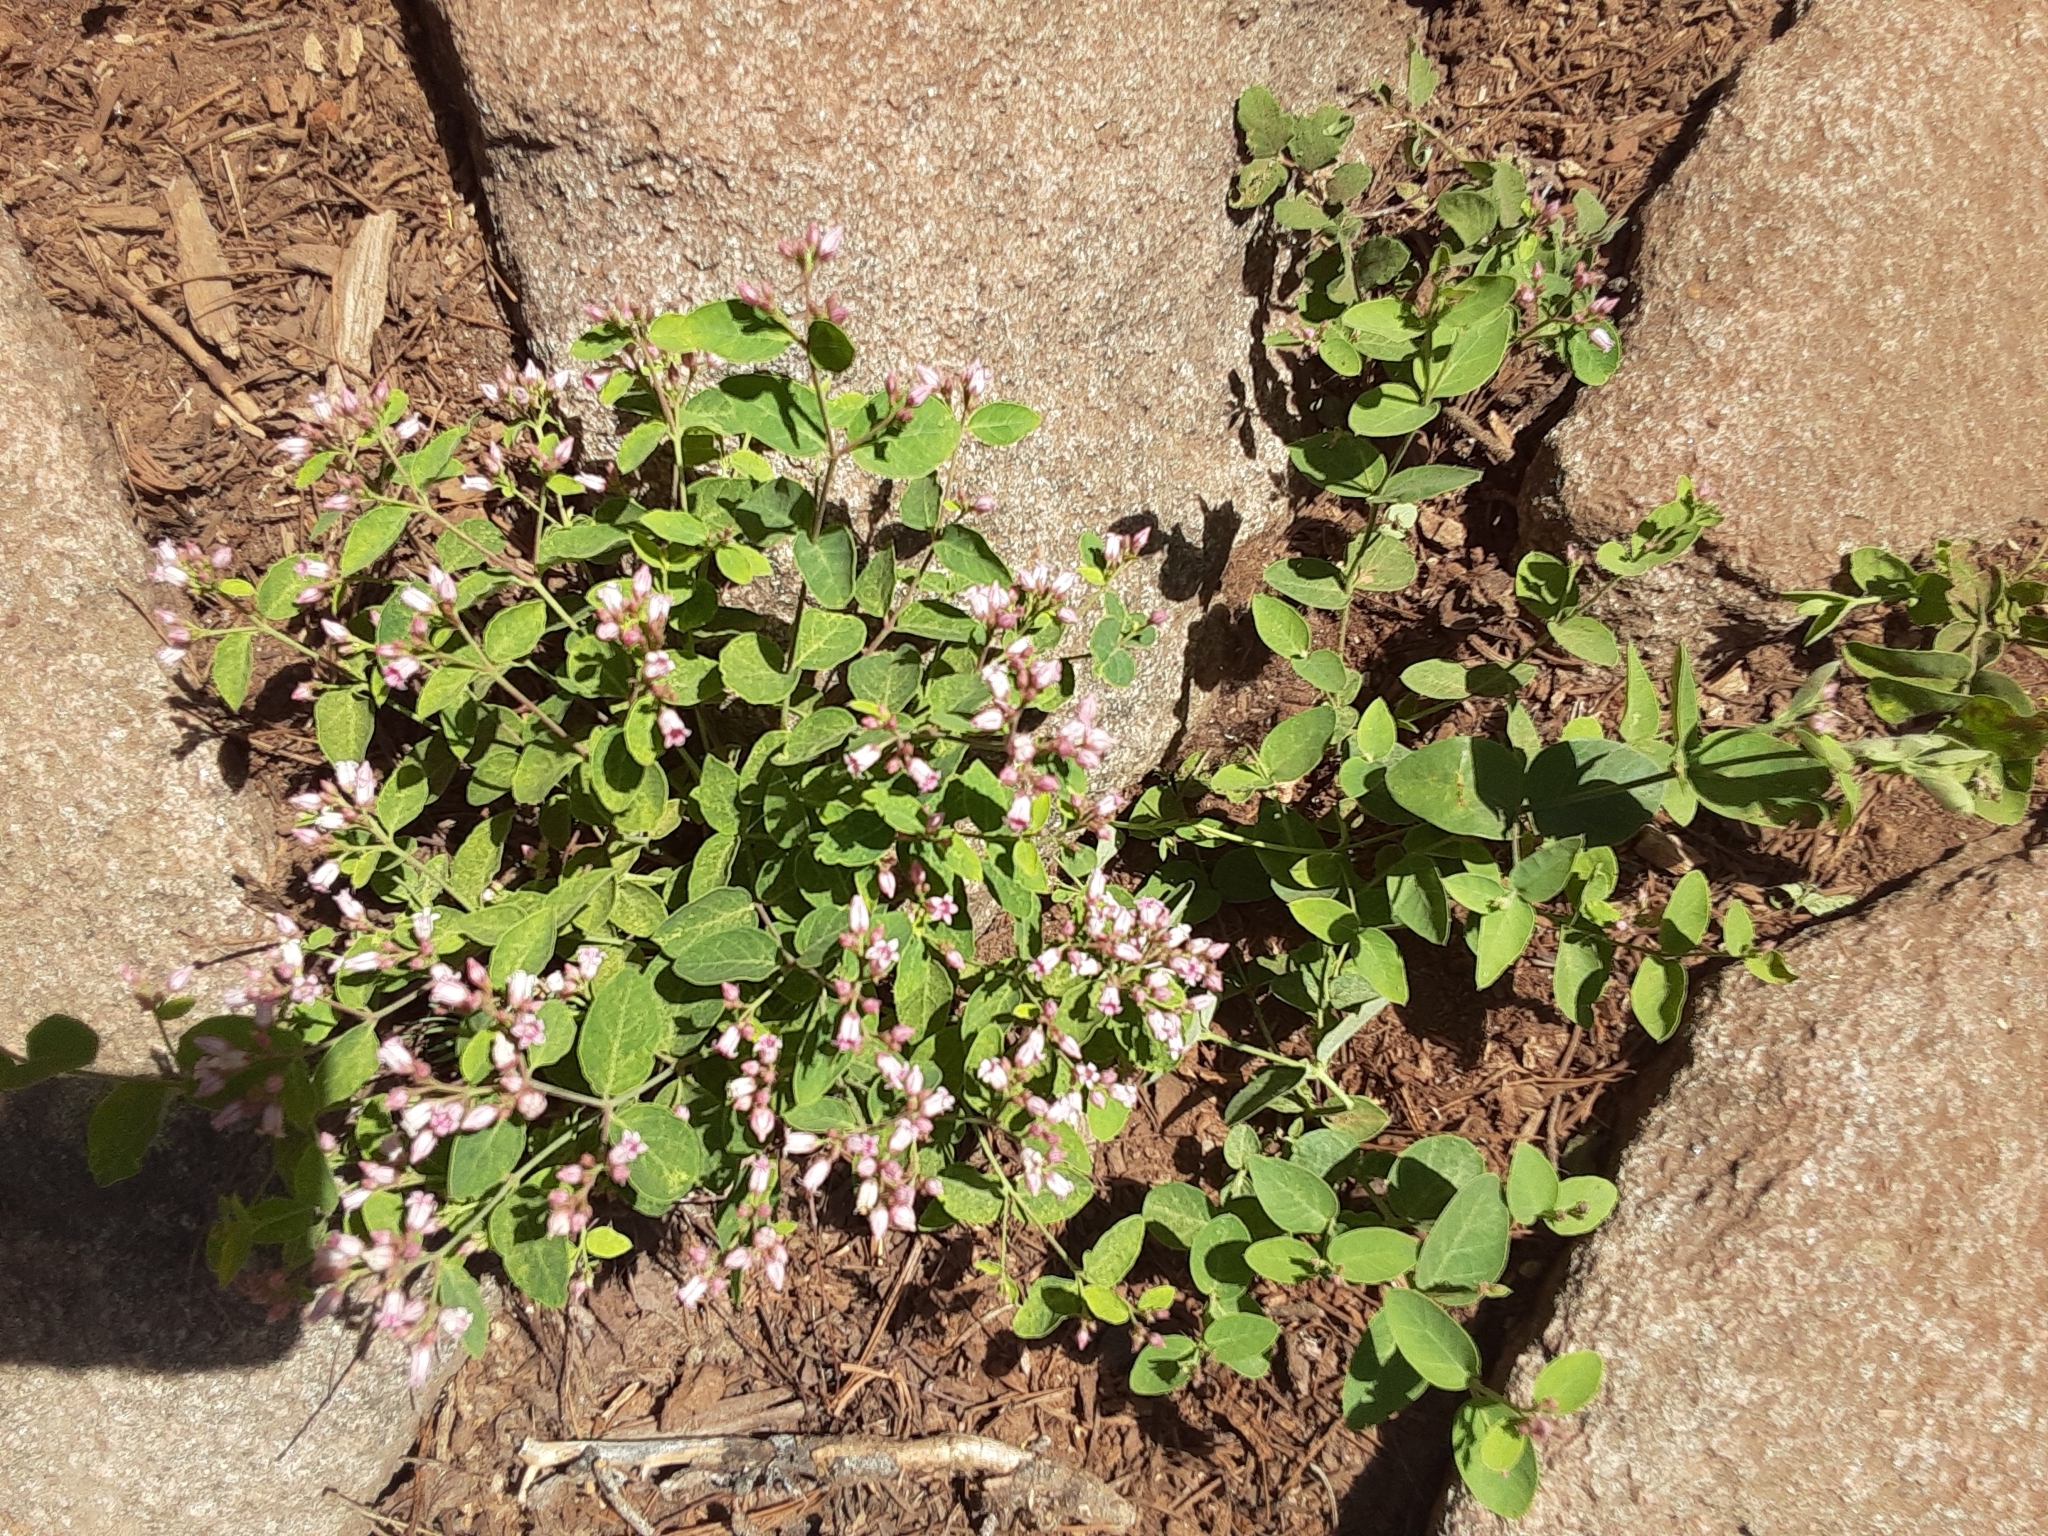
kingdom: Plantae
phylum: Tracheophyta
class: Magnoliopsida
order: Gentianales
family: Apocynaceae
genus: Apocynum
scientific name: Apocynum androsaemifolium
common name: Spreading dogbane
